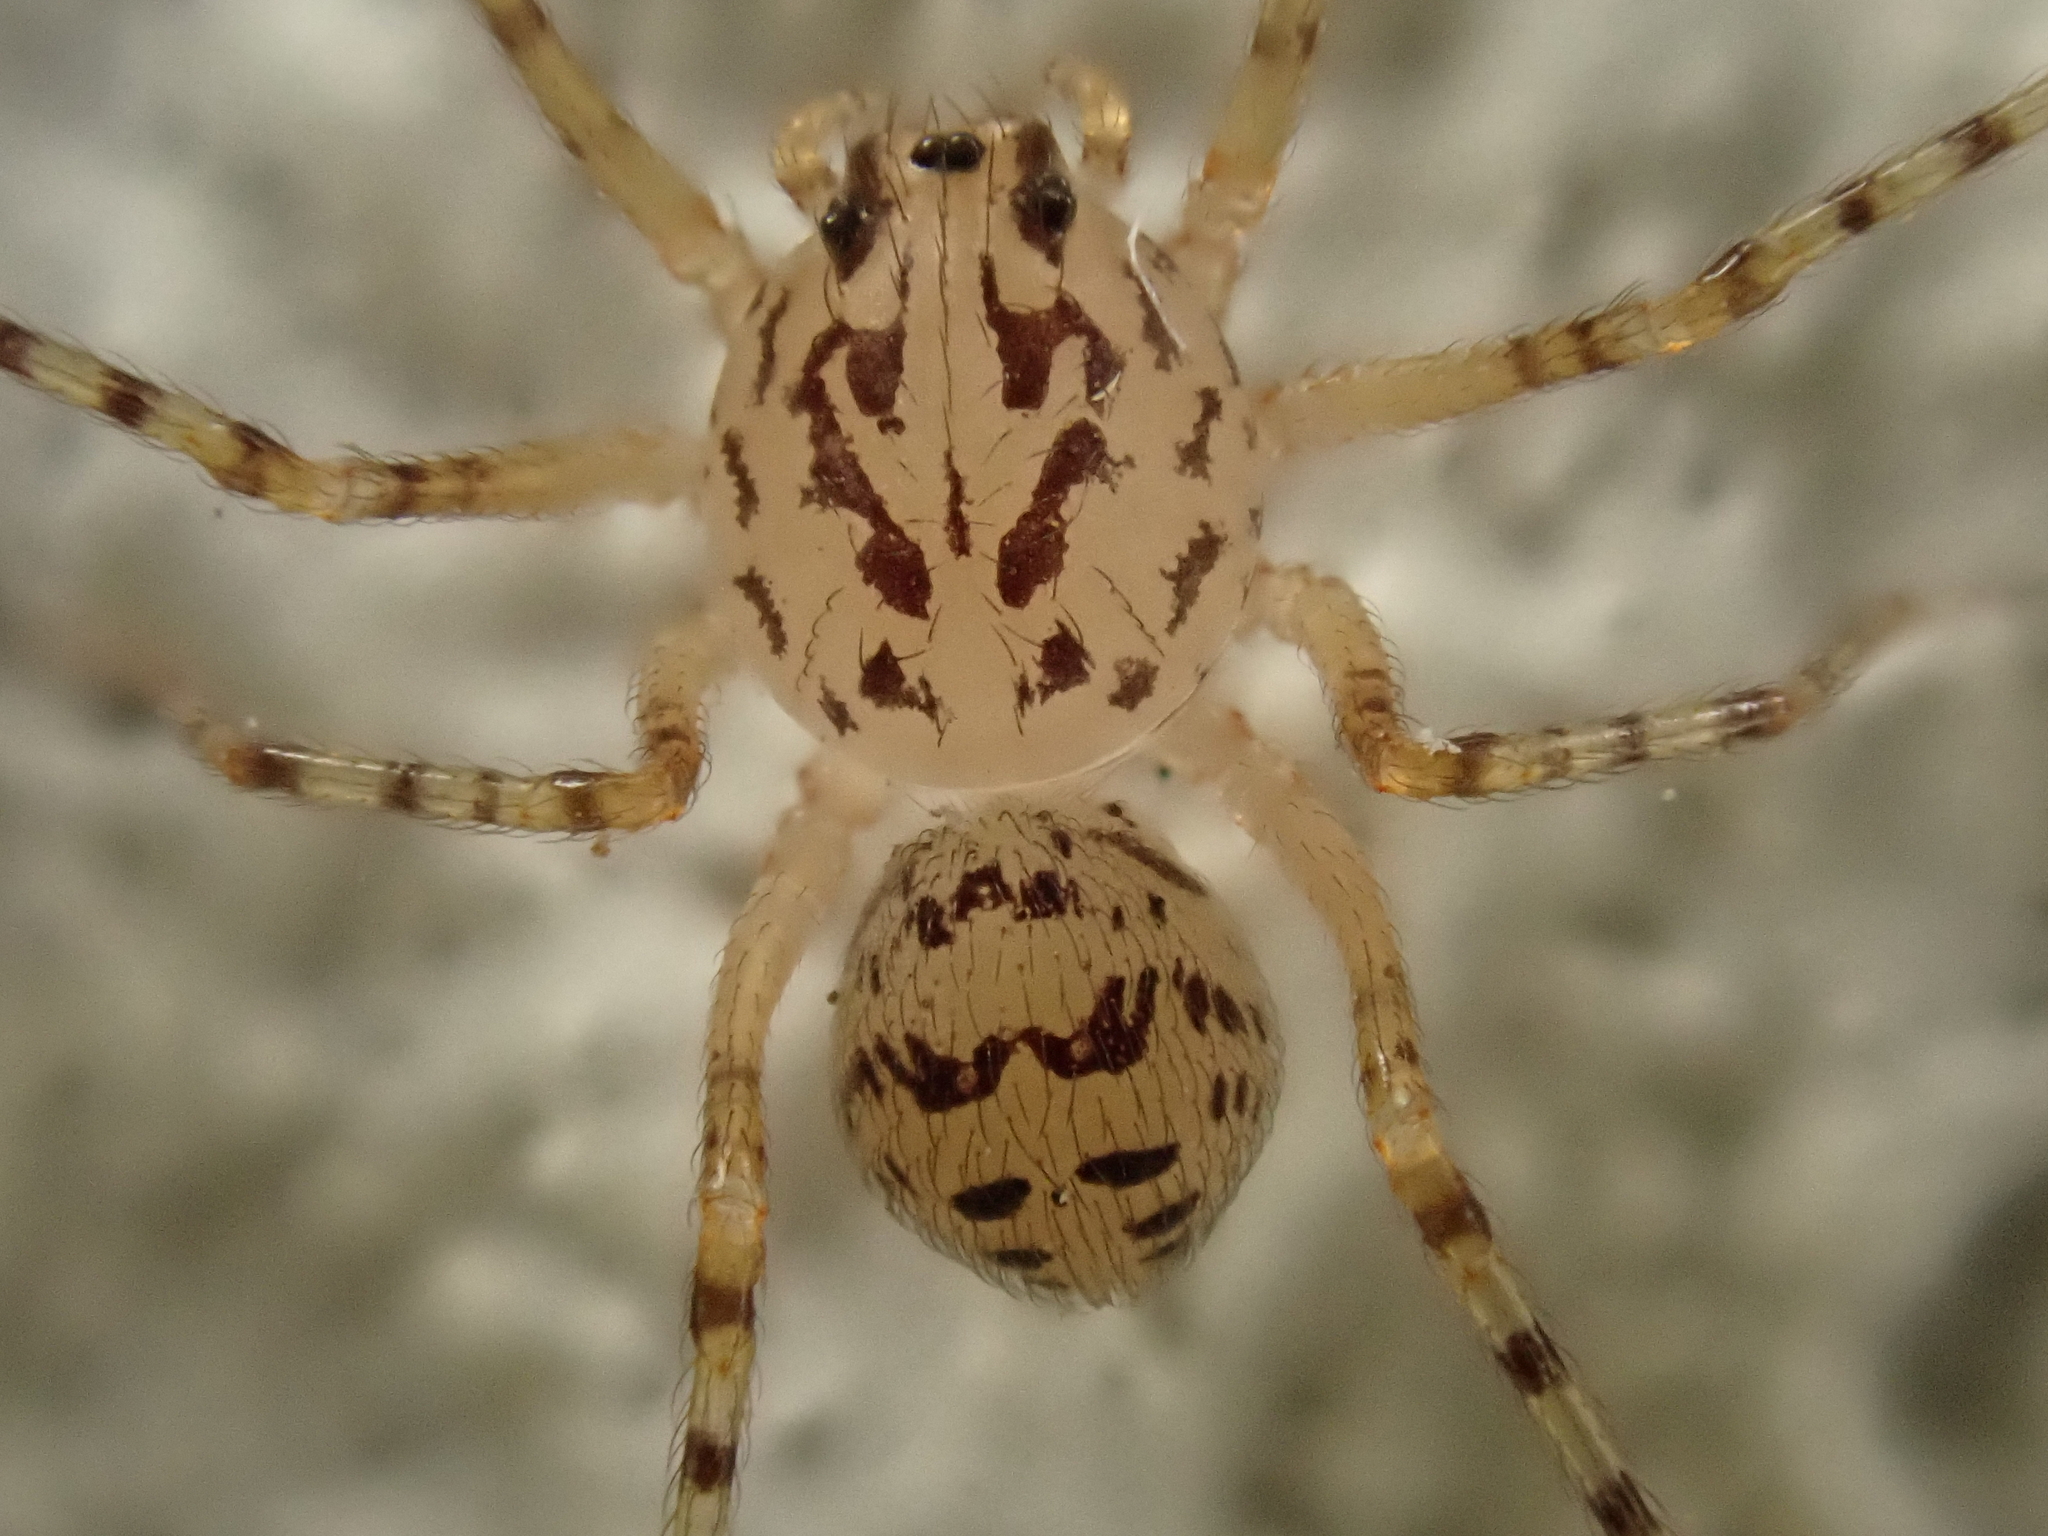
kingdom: Animalia
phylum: Arthropoda
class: Arachnida
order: Araneae
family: Scytodidae
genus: Scytodes
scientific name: Scytodes thoracica
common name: Spitting spider
